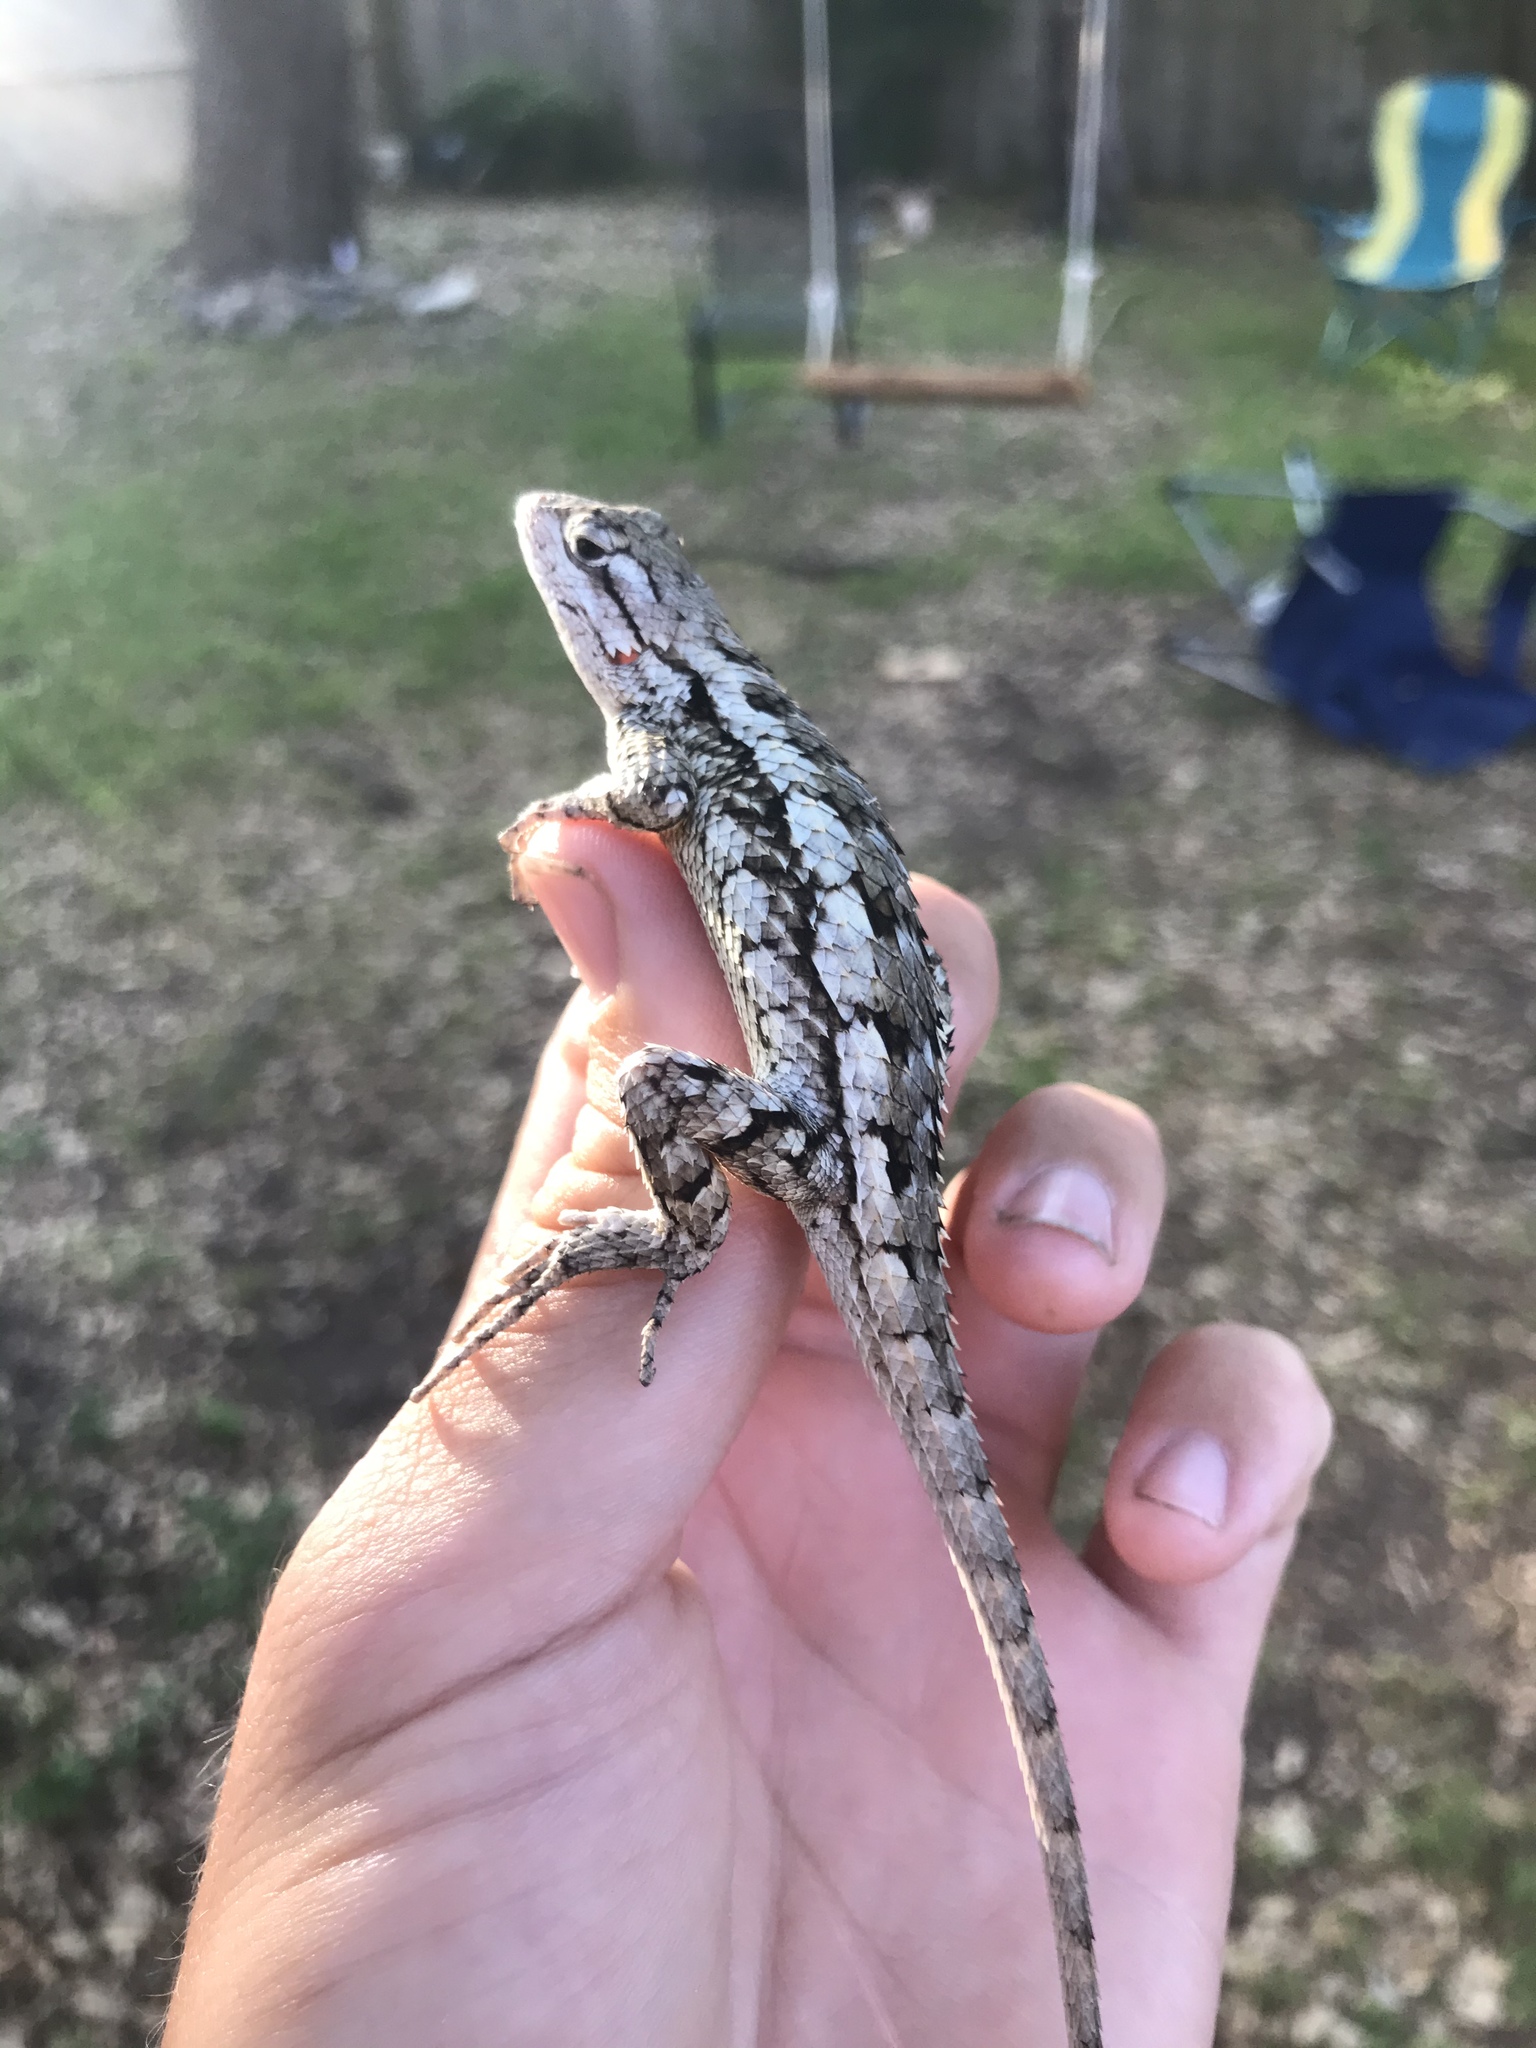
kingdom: Animalia
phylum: Chordata
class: Squamata
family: Phrynosomatidae
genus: Sceloporus
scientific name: Sceloporus olivaceus
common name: Texas spiny lizard
